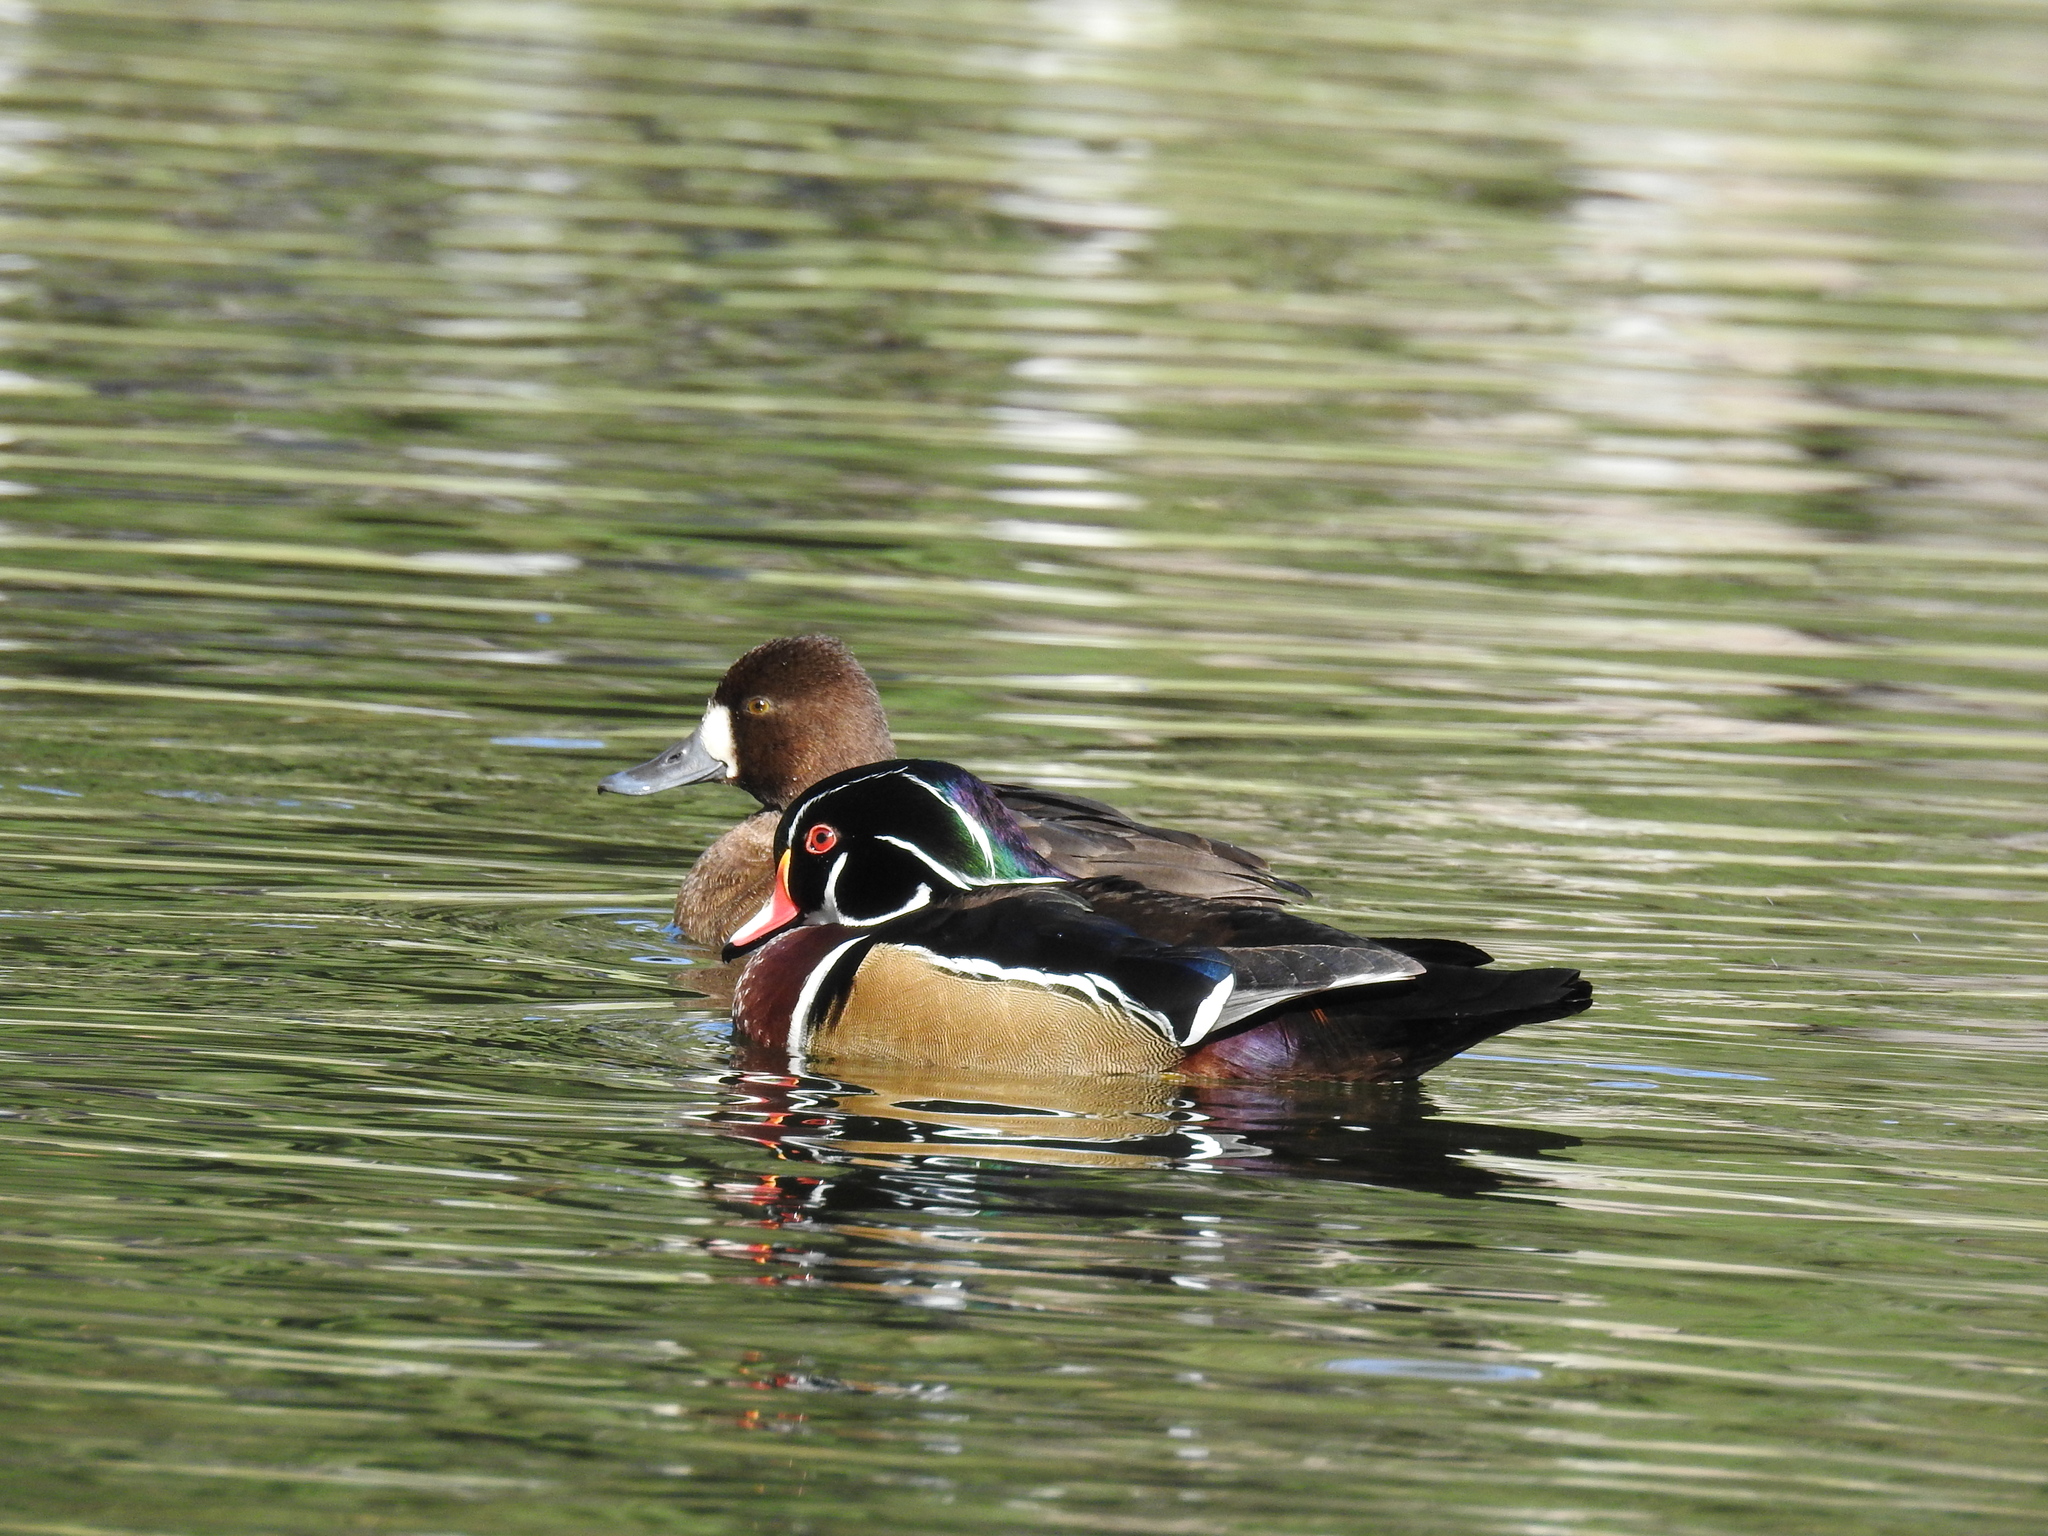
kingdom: Animalia
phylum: Chordata
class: Aves
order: Anseriformes
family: Anatidae
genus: Aix
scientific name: Aix sponsa
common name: Wood duck
